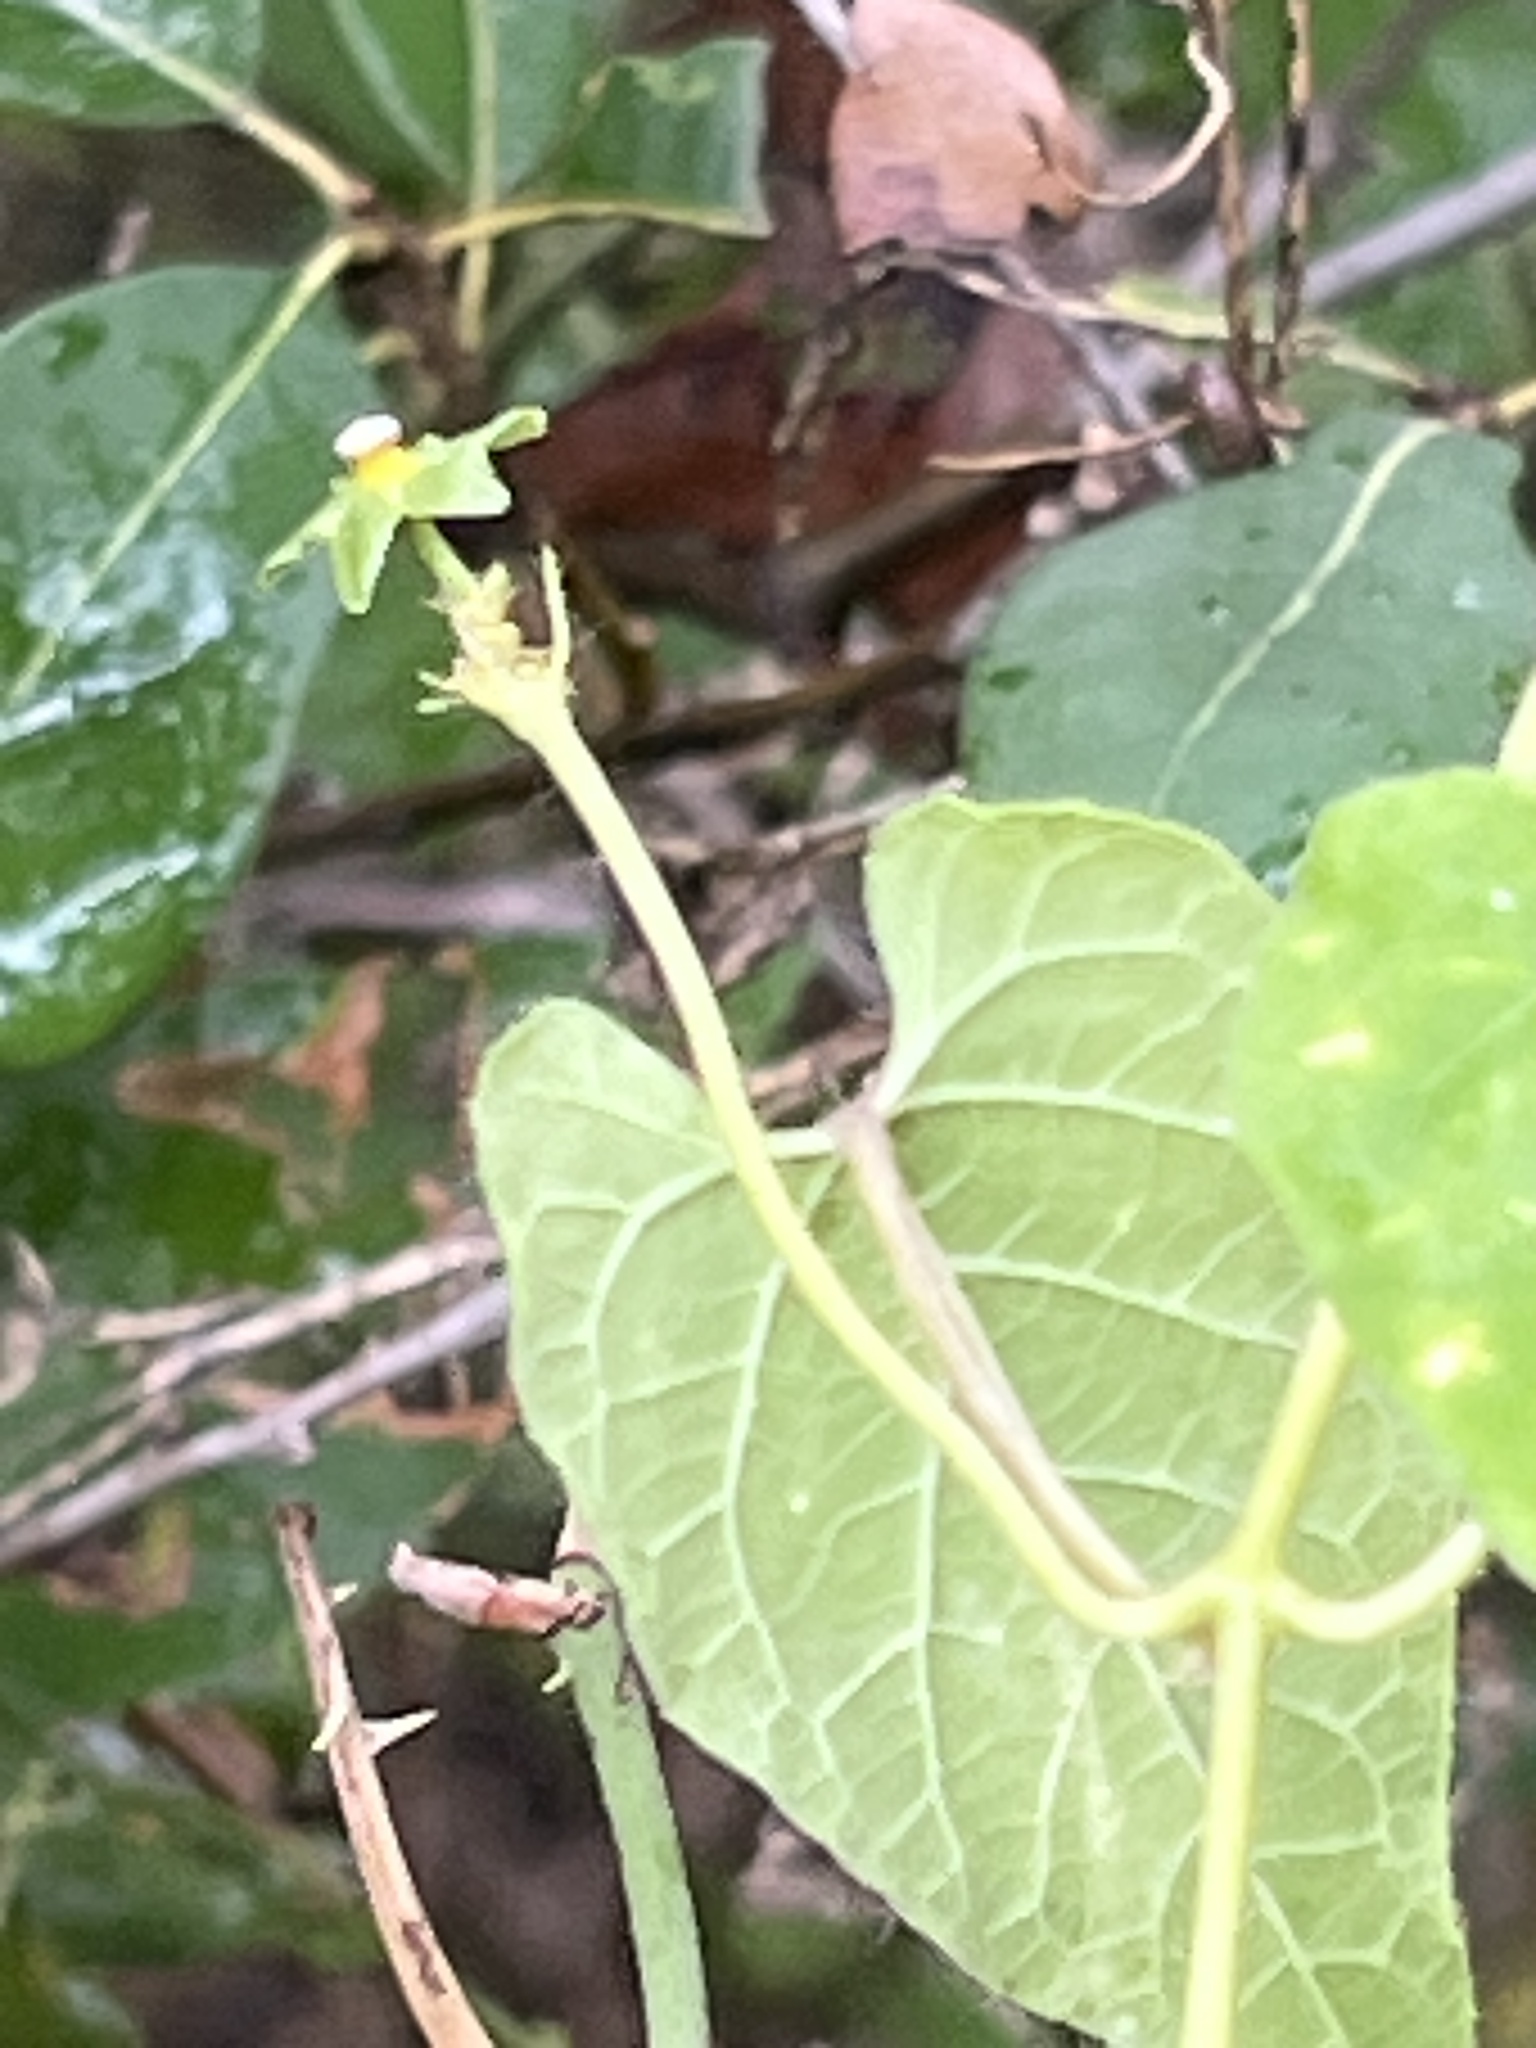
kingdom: Plantae
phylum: Tracheophyta
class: Magnoliopsida
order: Gentianales
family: Apocynaceae
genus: Dictyanthus
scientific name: Dictyanthus reticulatus
